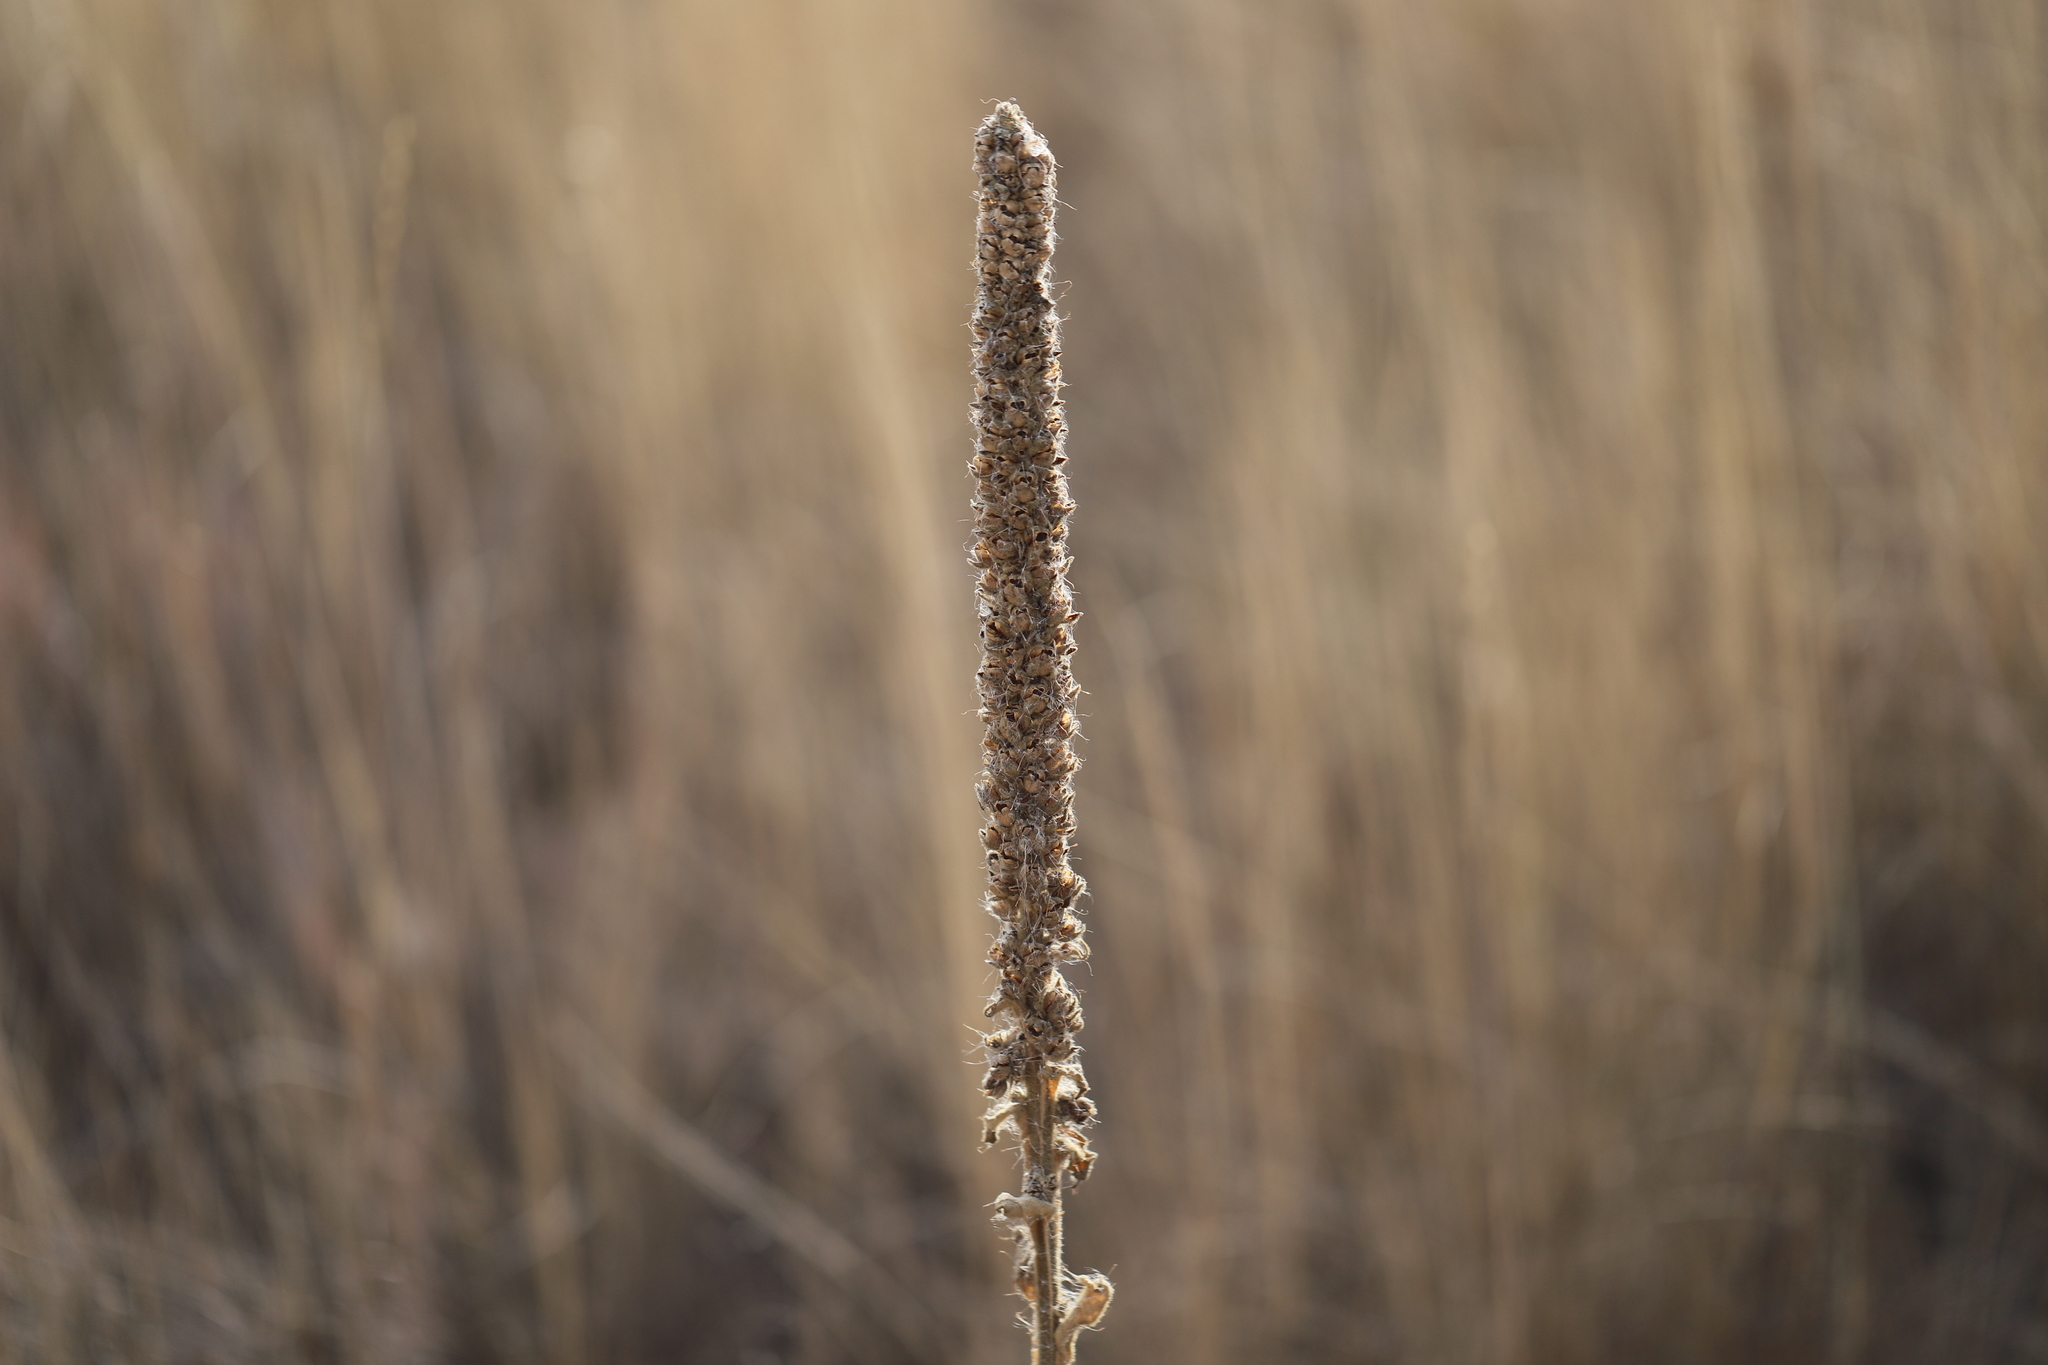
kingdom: Plantae
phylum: Tracheophyta
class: Magnoliopsida
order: Lamiales
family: Scrophulariaceae
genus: Verbascum
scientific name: Verbascum thapsus
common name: Common mullein
